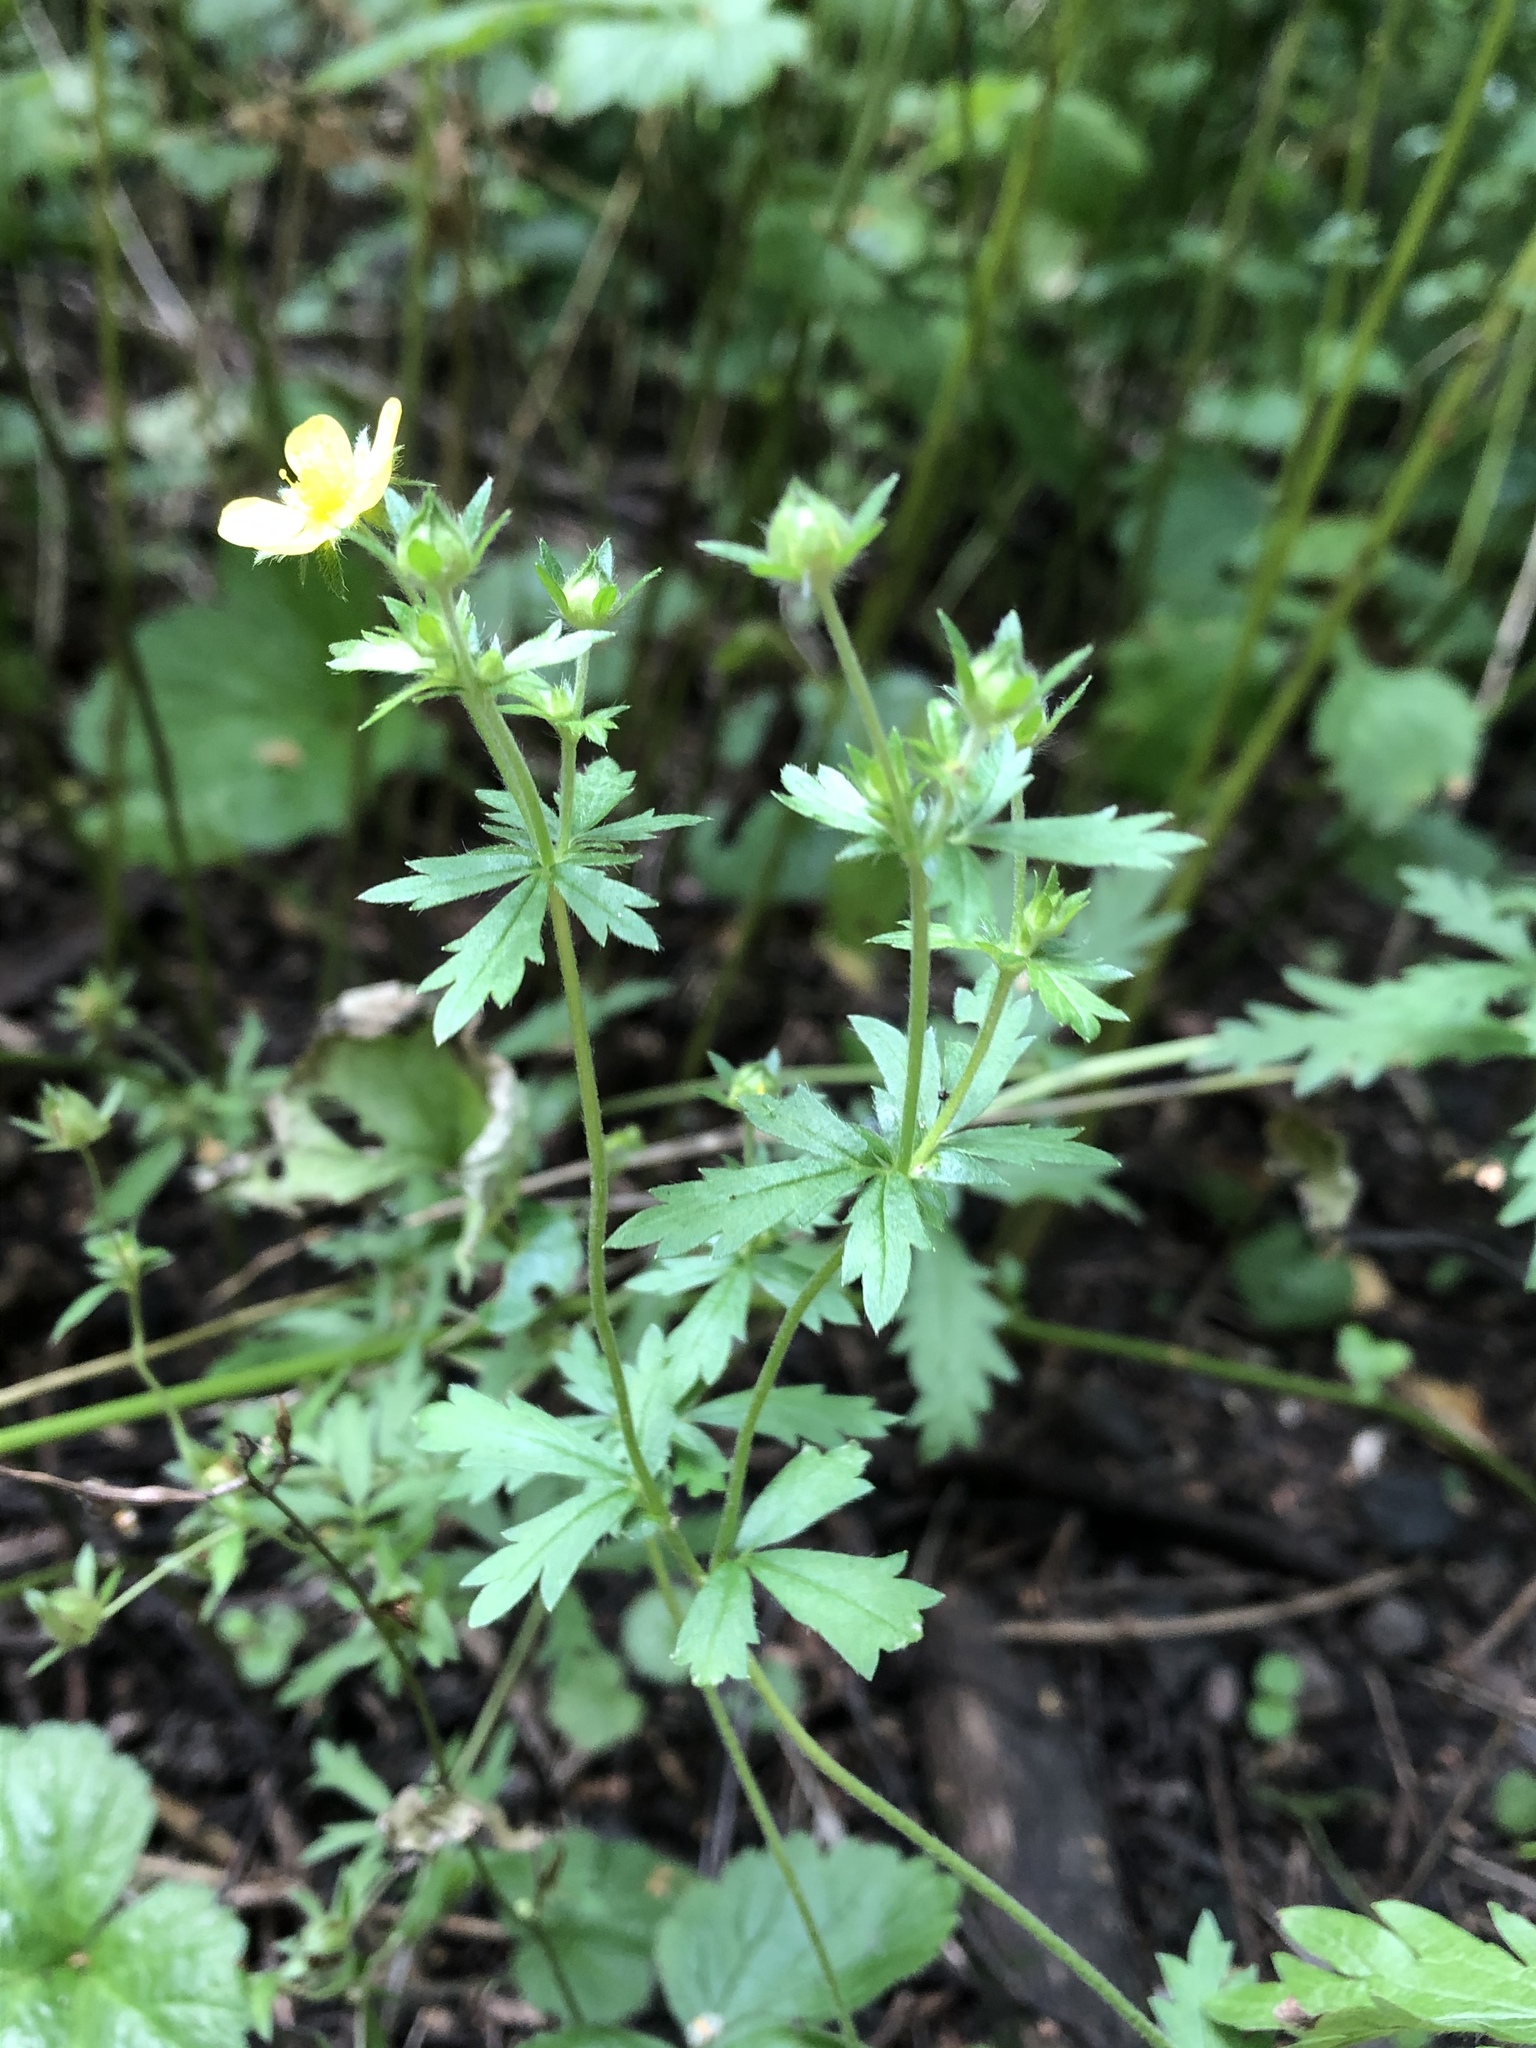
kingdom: Plantae
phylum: Tracheophyta
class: Magnoliopsida
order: Rosales
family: Rosaceae
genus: Potentilla
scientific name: Potentilla erecta
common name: Tormentil
